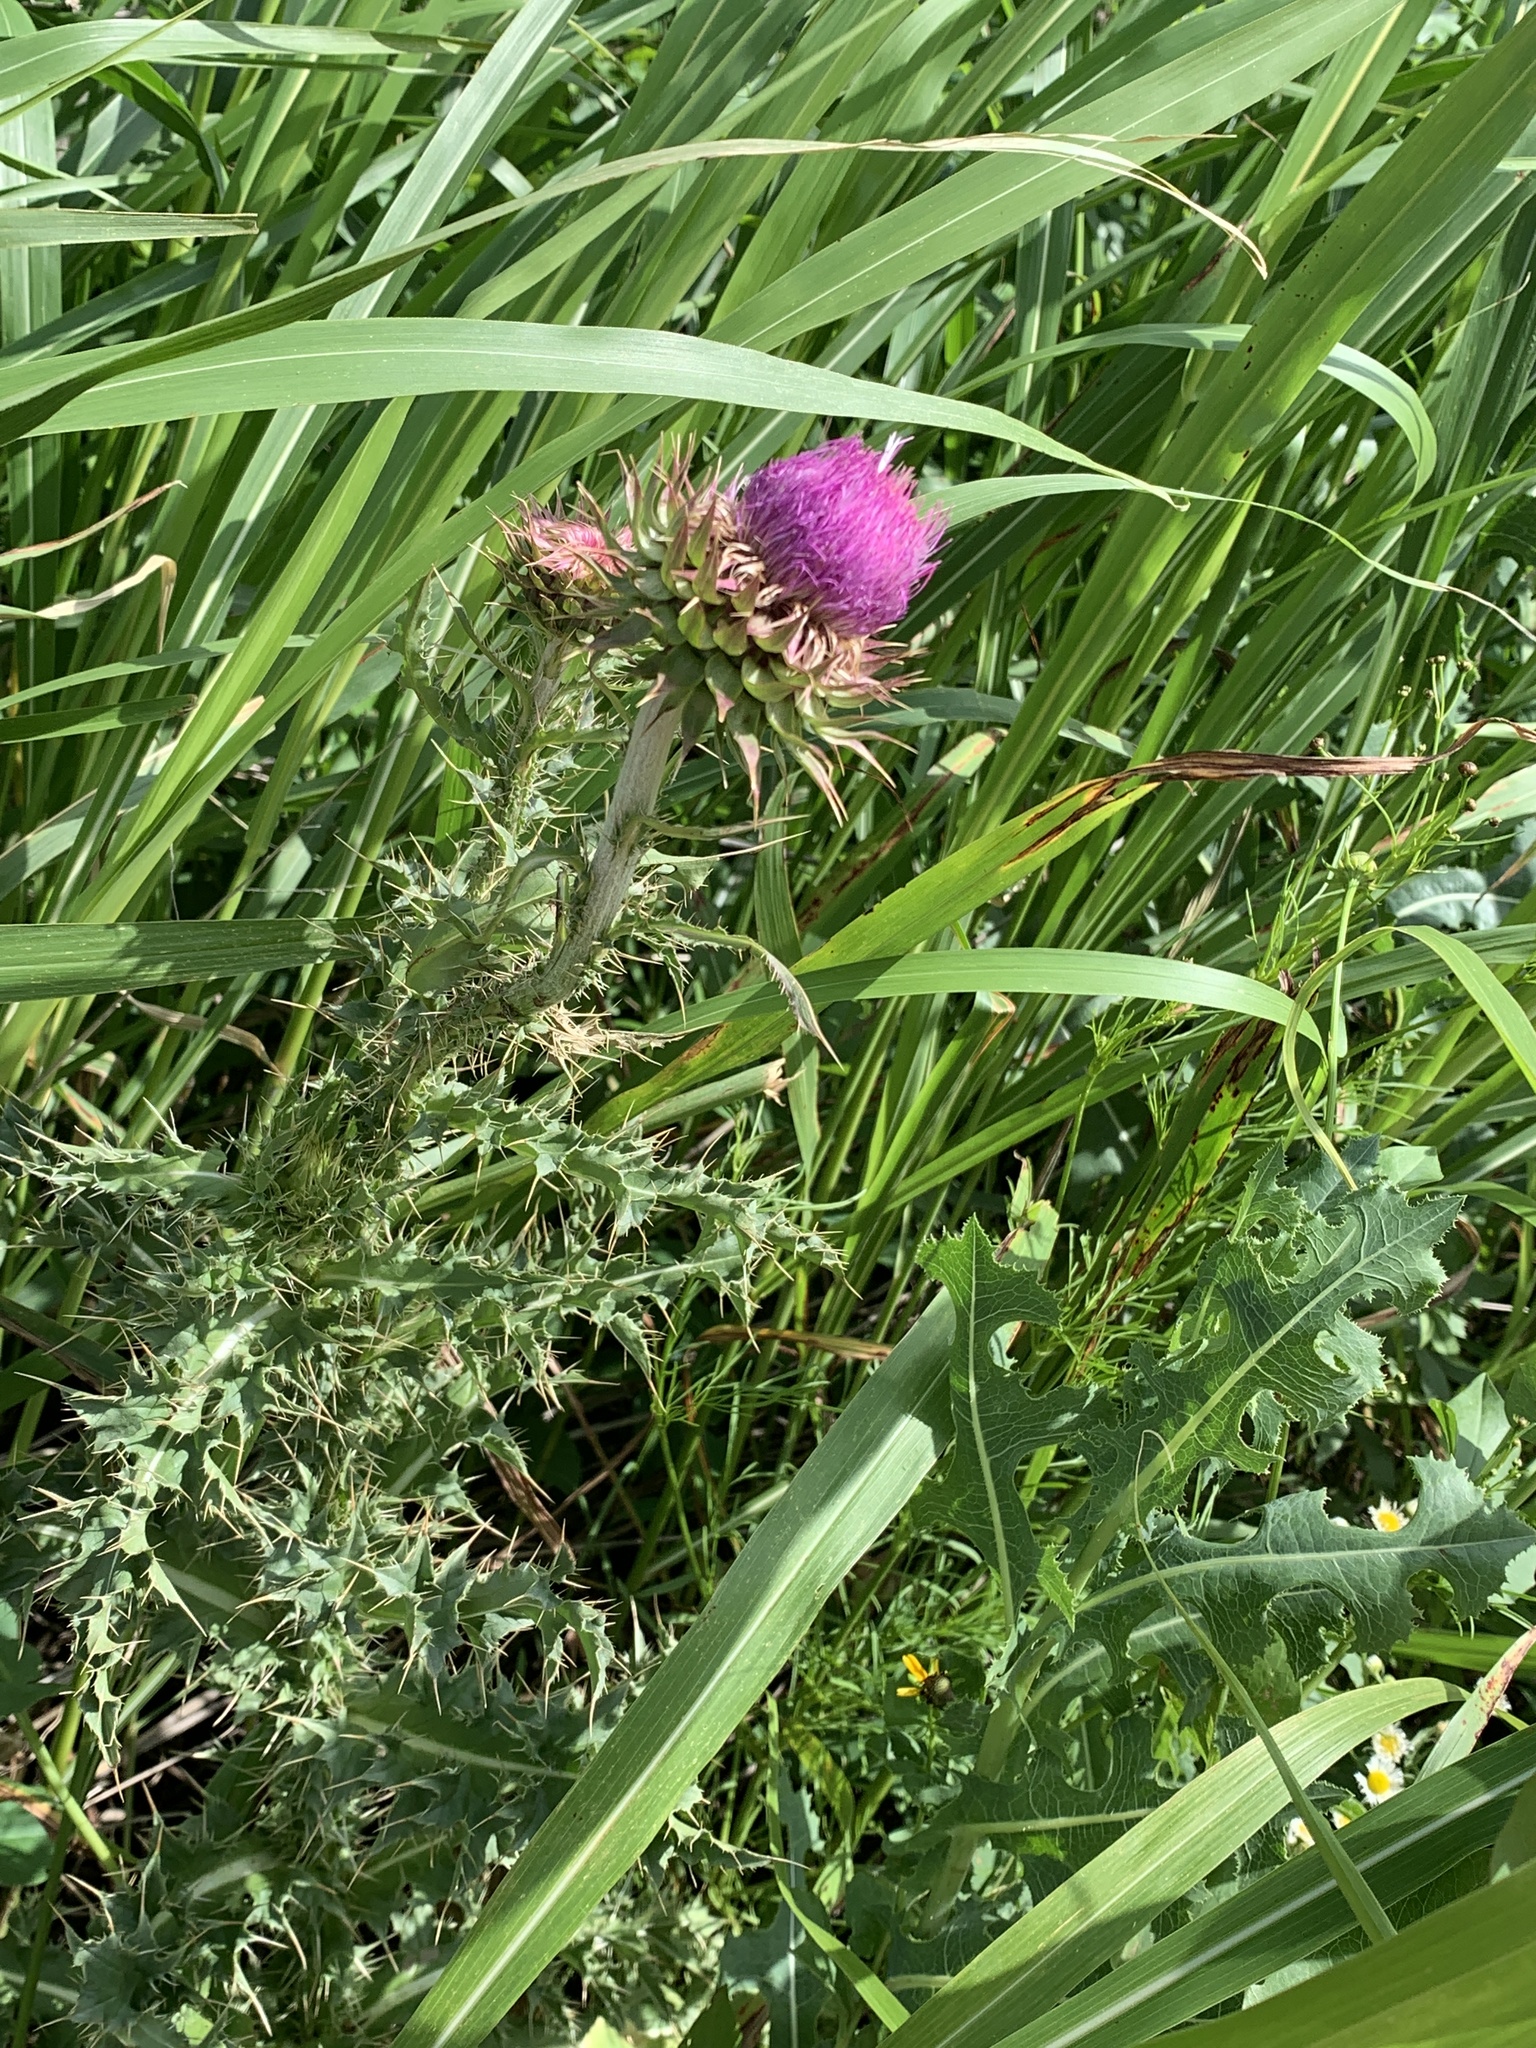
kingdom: Plantae
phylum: Tracheophyta
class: Magnoliopsida
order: Asterales
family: Asteraceae
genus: Carduus
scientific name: Carduus nutans
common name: Musk thistle
